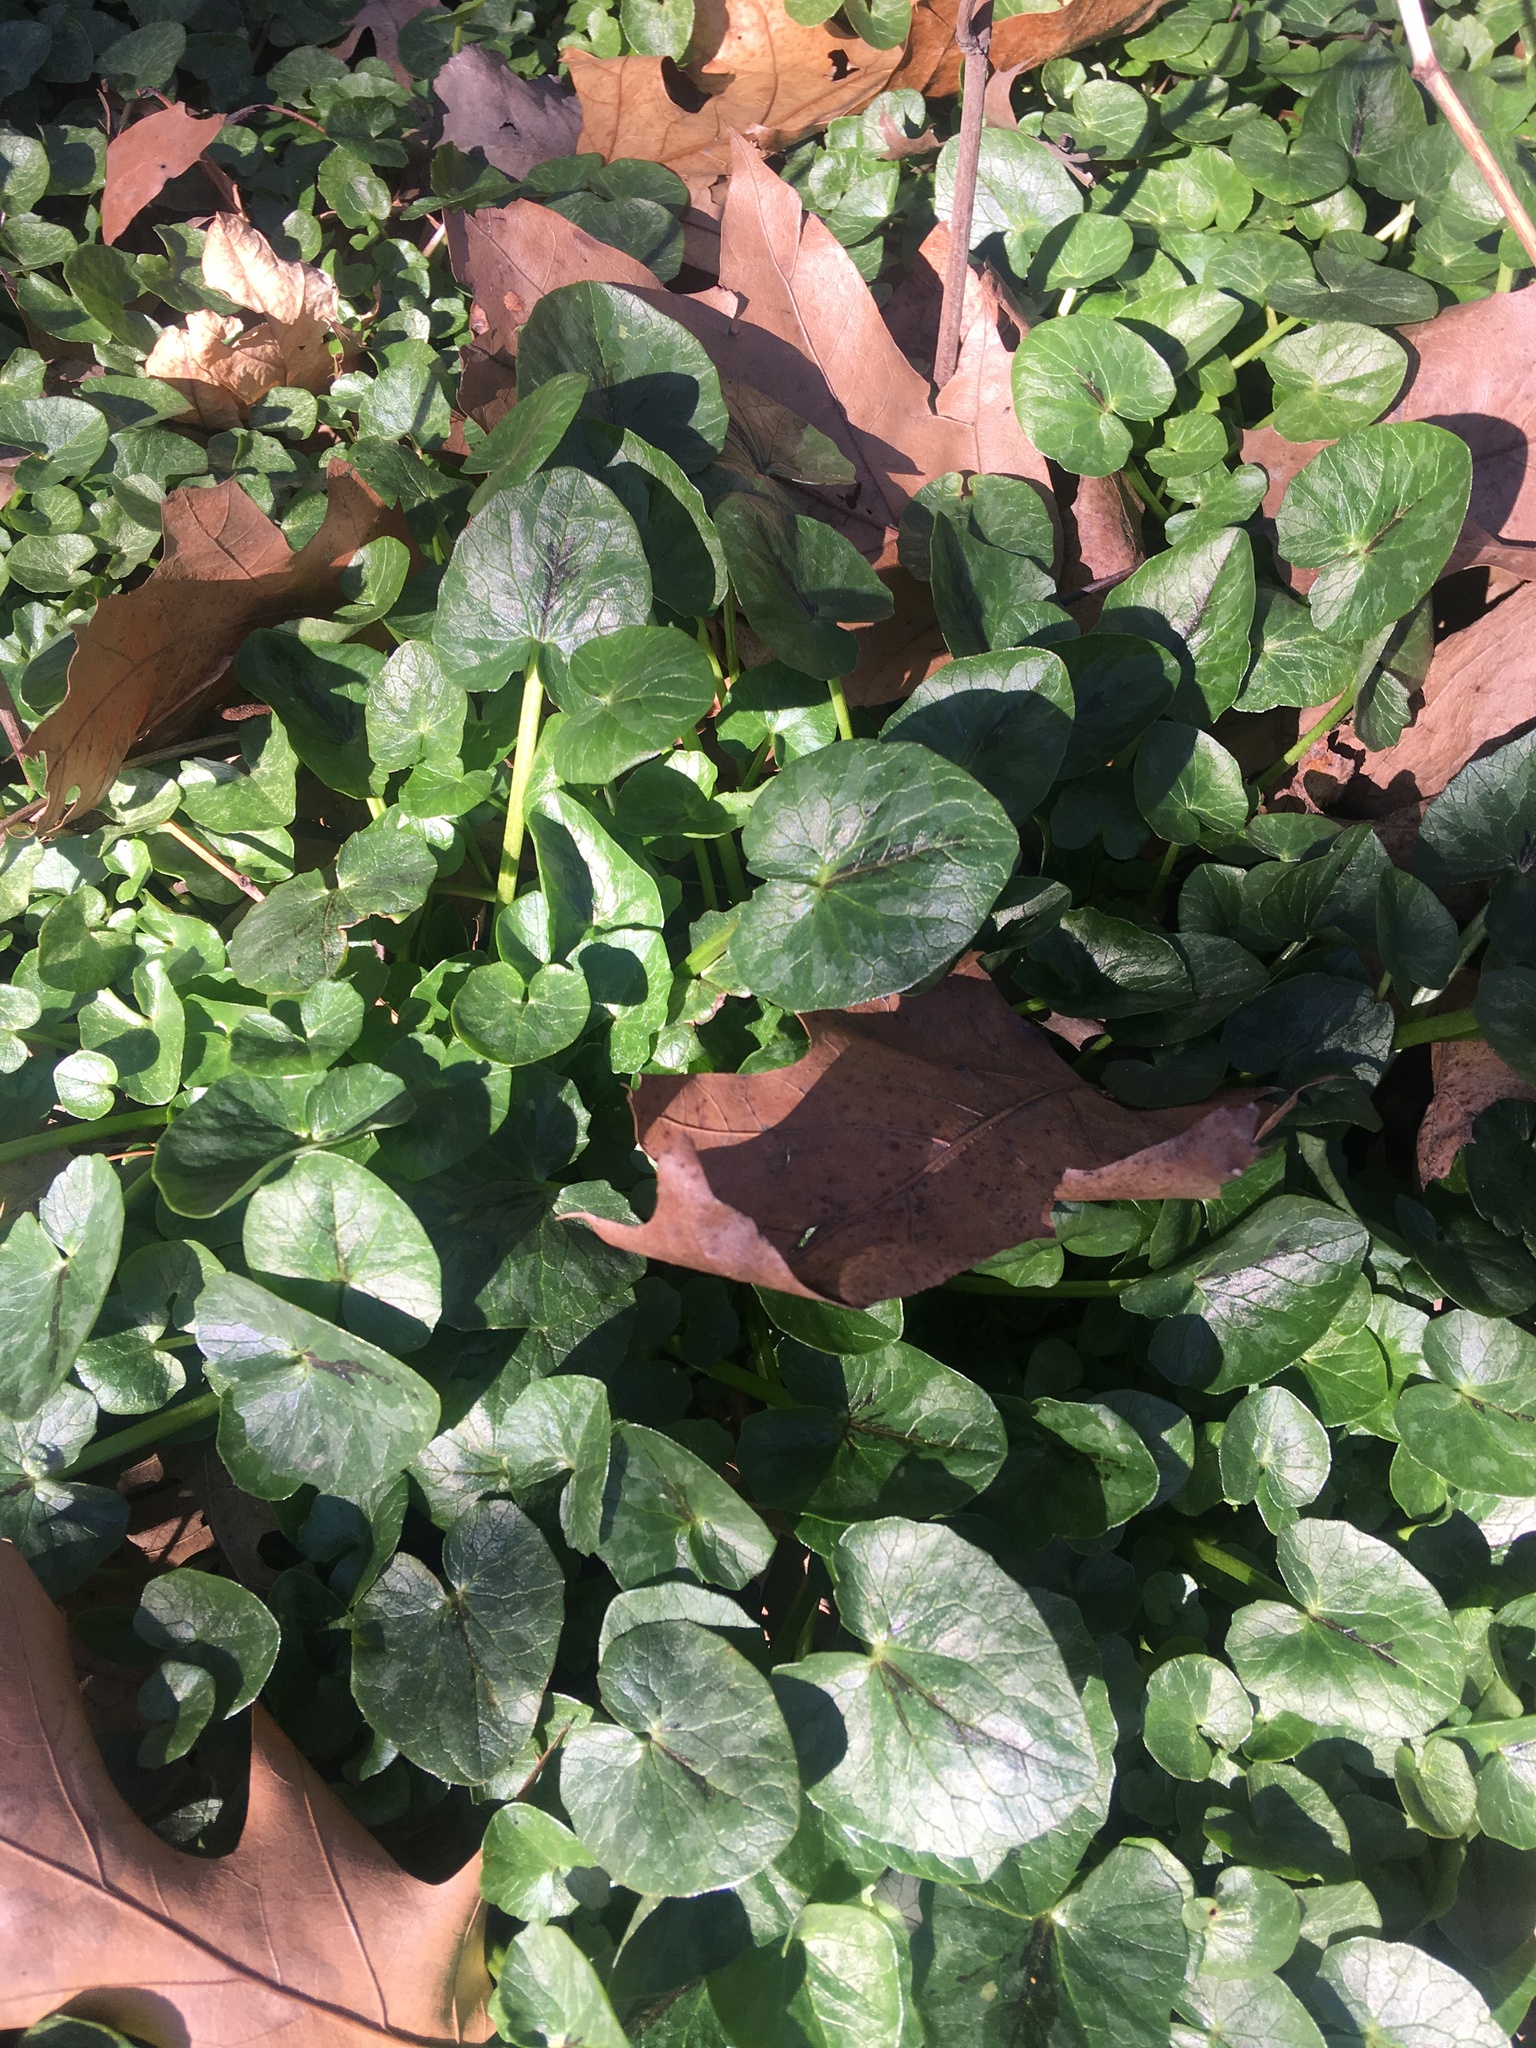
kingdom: Plantae
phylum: Tracheophyta
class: Magnoliopsida
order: Ranunculales
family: Ranunculaceae
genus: Ficaria
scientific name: Ficaria verna
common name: Lesser celandine
